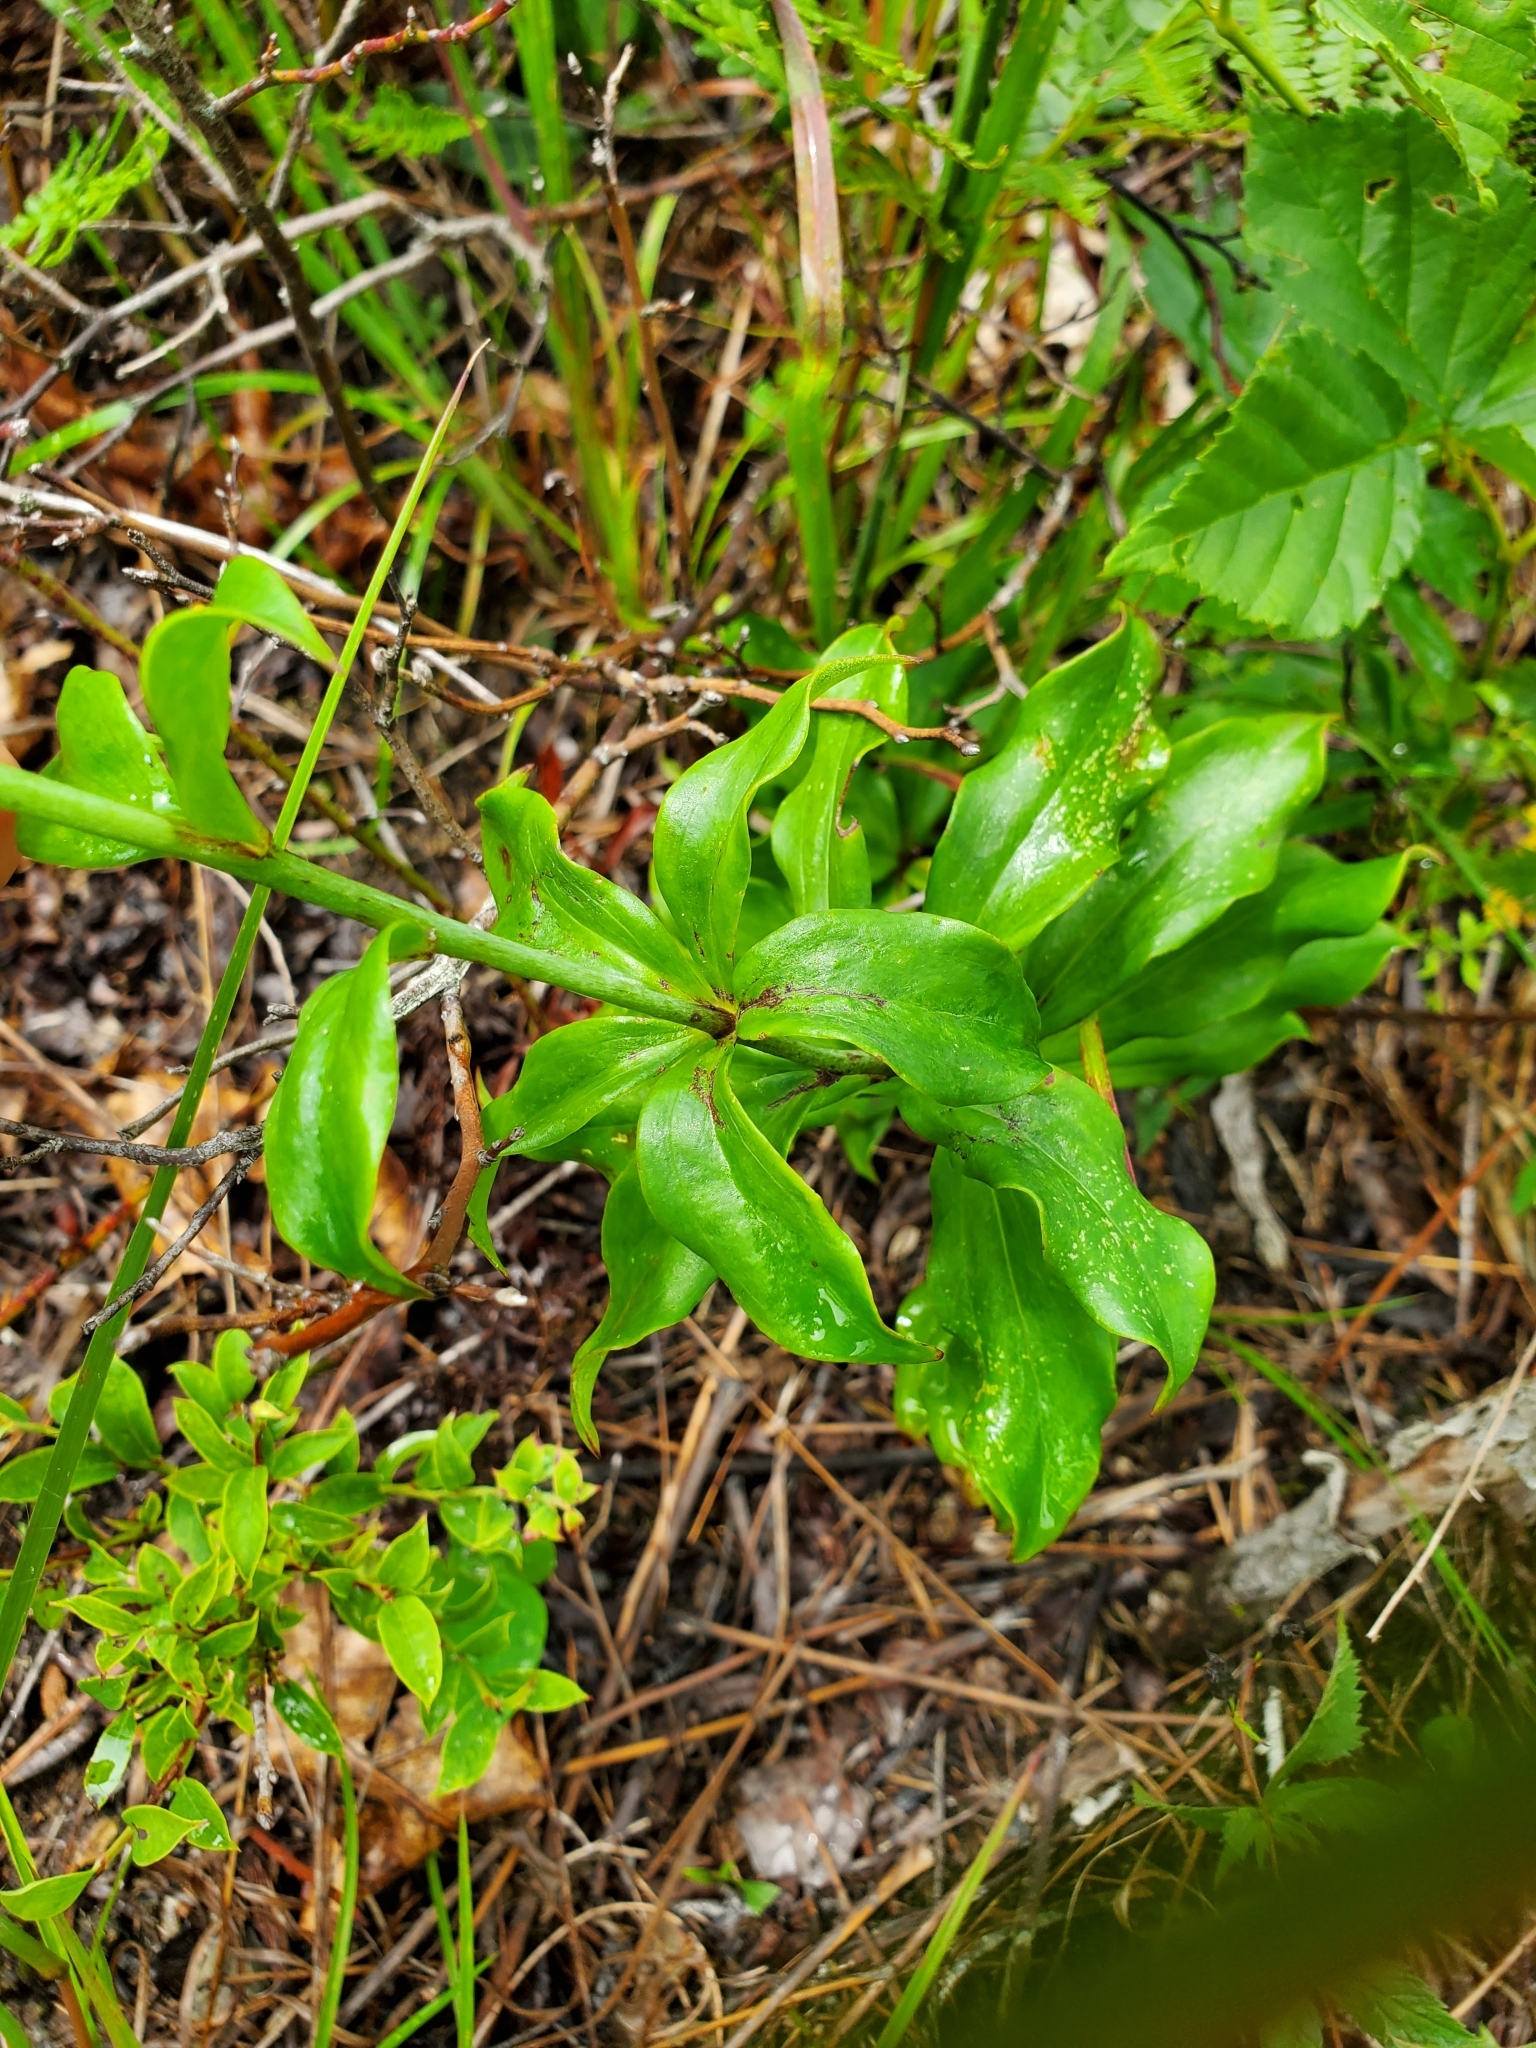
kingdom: Plantae
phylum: Tracheophyta
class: Liliopsida
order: Liliales
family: Liliaceae
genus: Lilium
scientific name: Lilium michauxii
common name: Carolina lily
